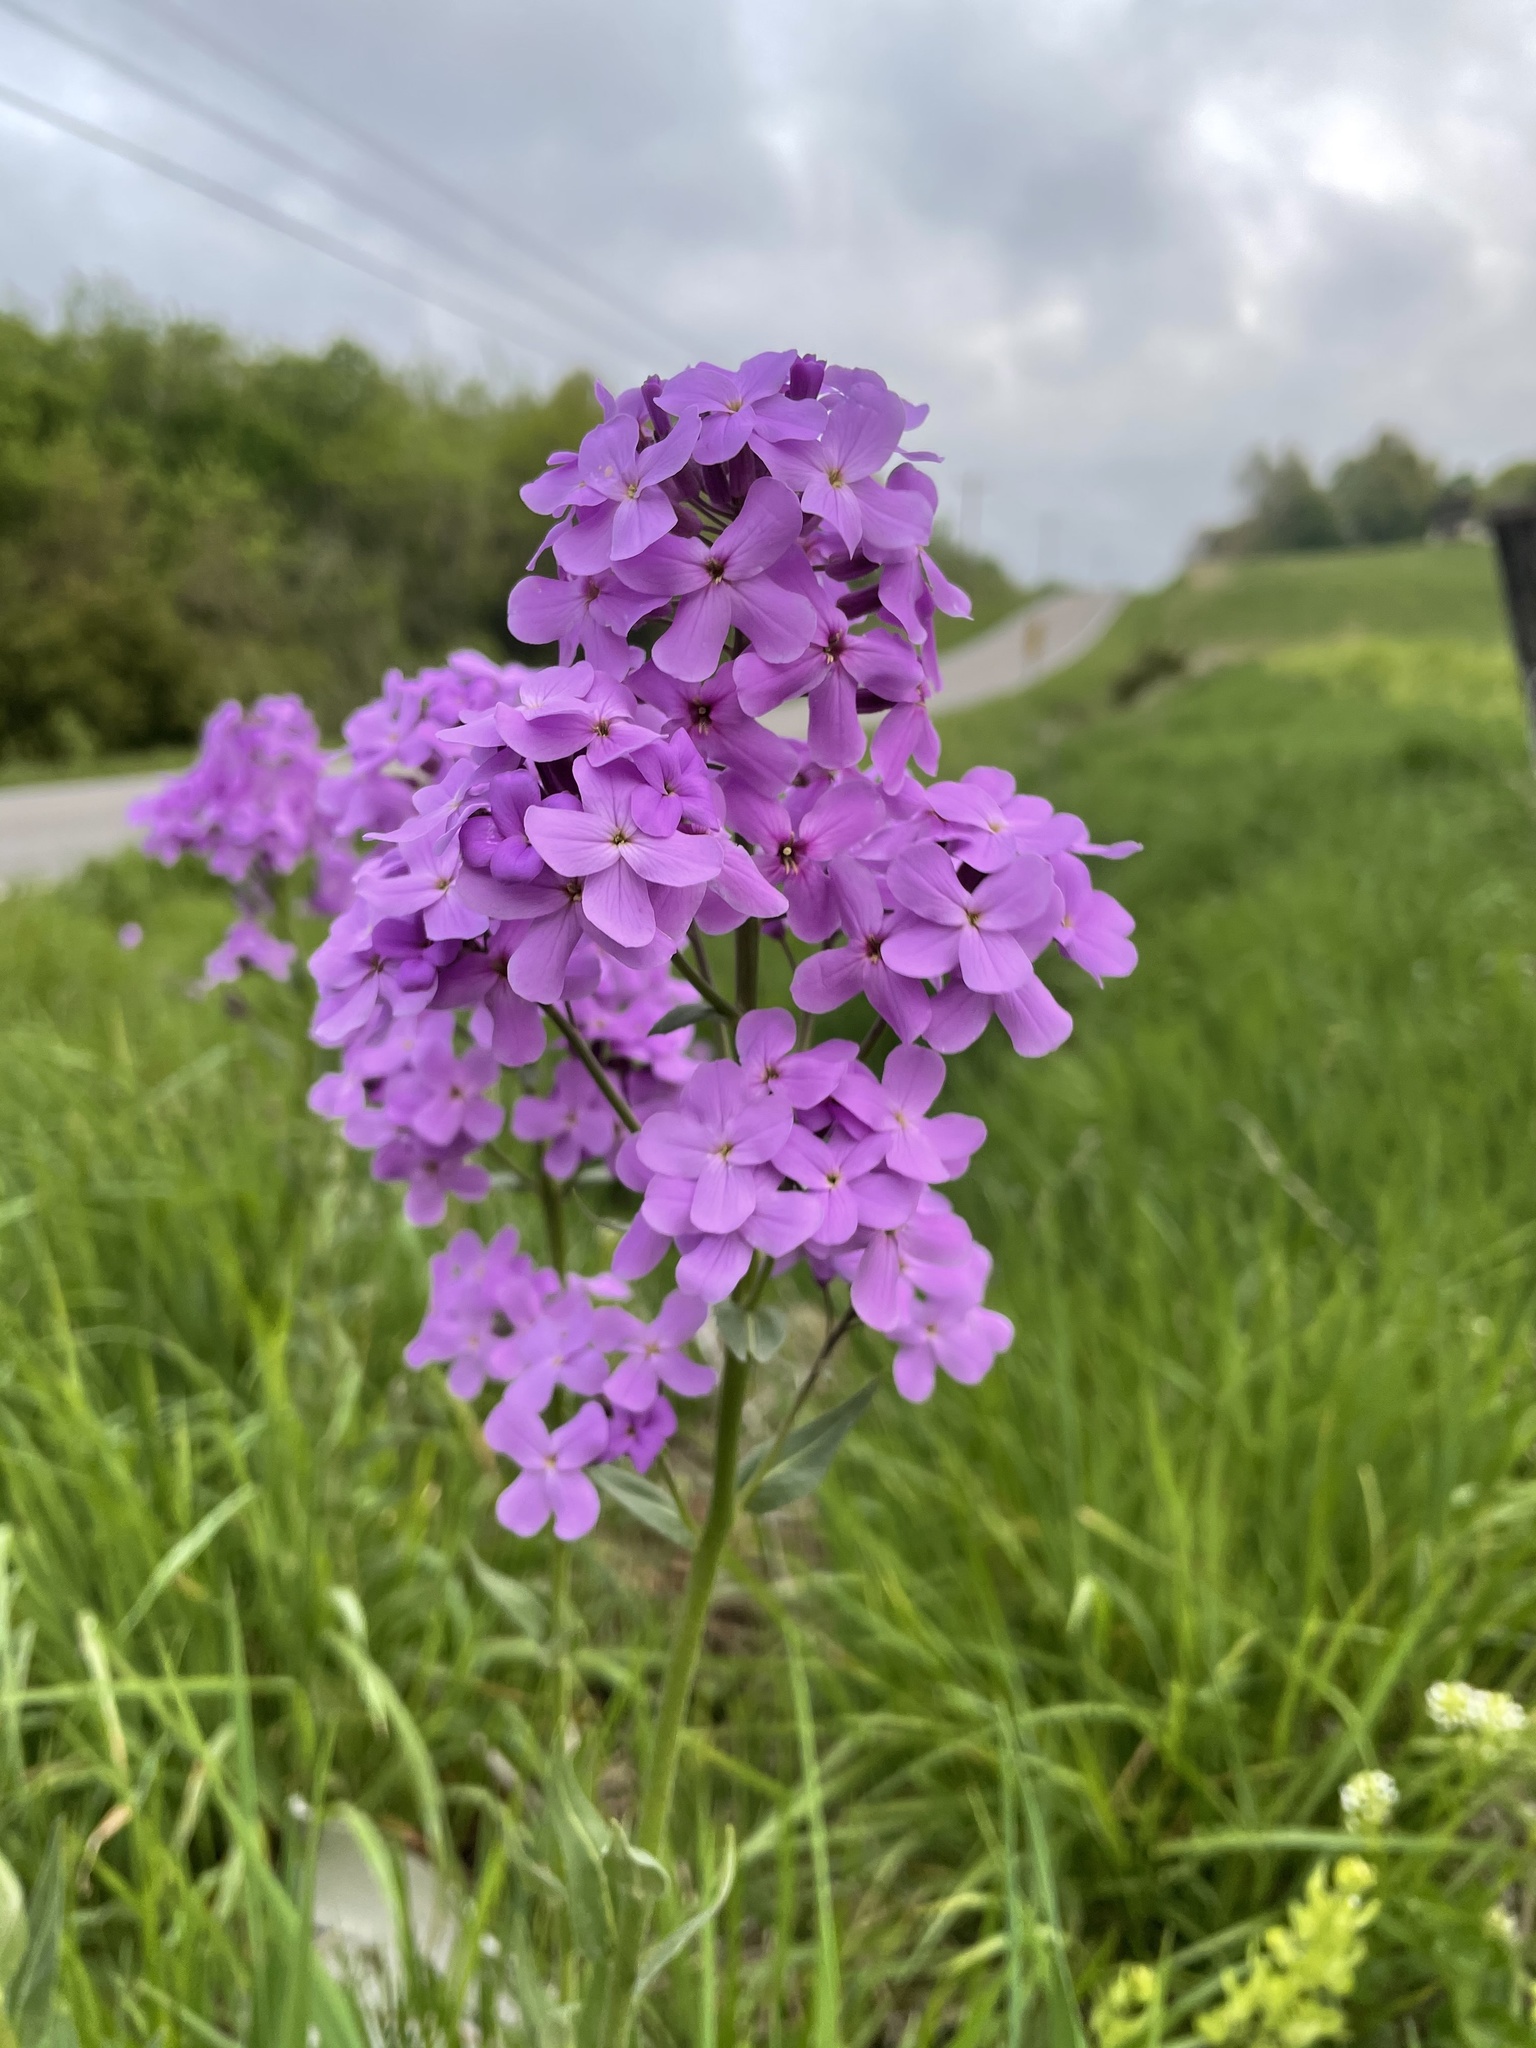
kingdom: Plantae
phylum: Tracheophyta
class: Magnoliopsida
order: Brassicales
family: Brassicaceae
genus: Hesperis
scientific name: Hesperis matronalis
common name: Dame's-violet
